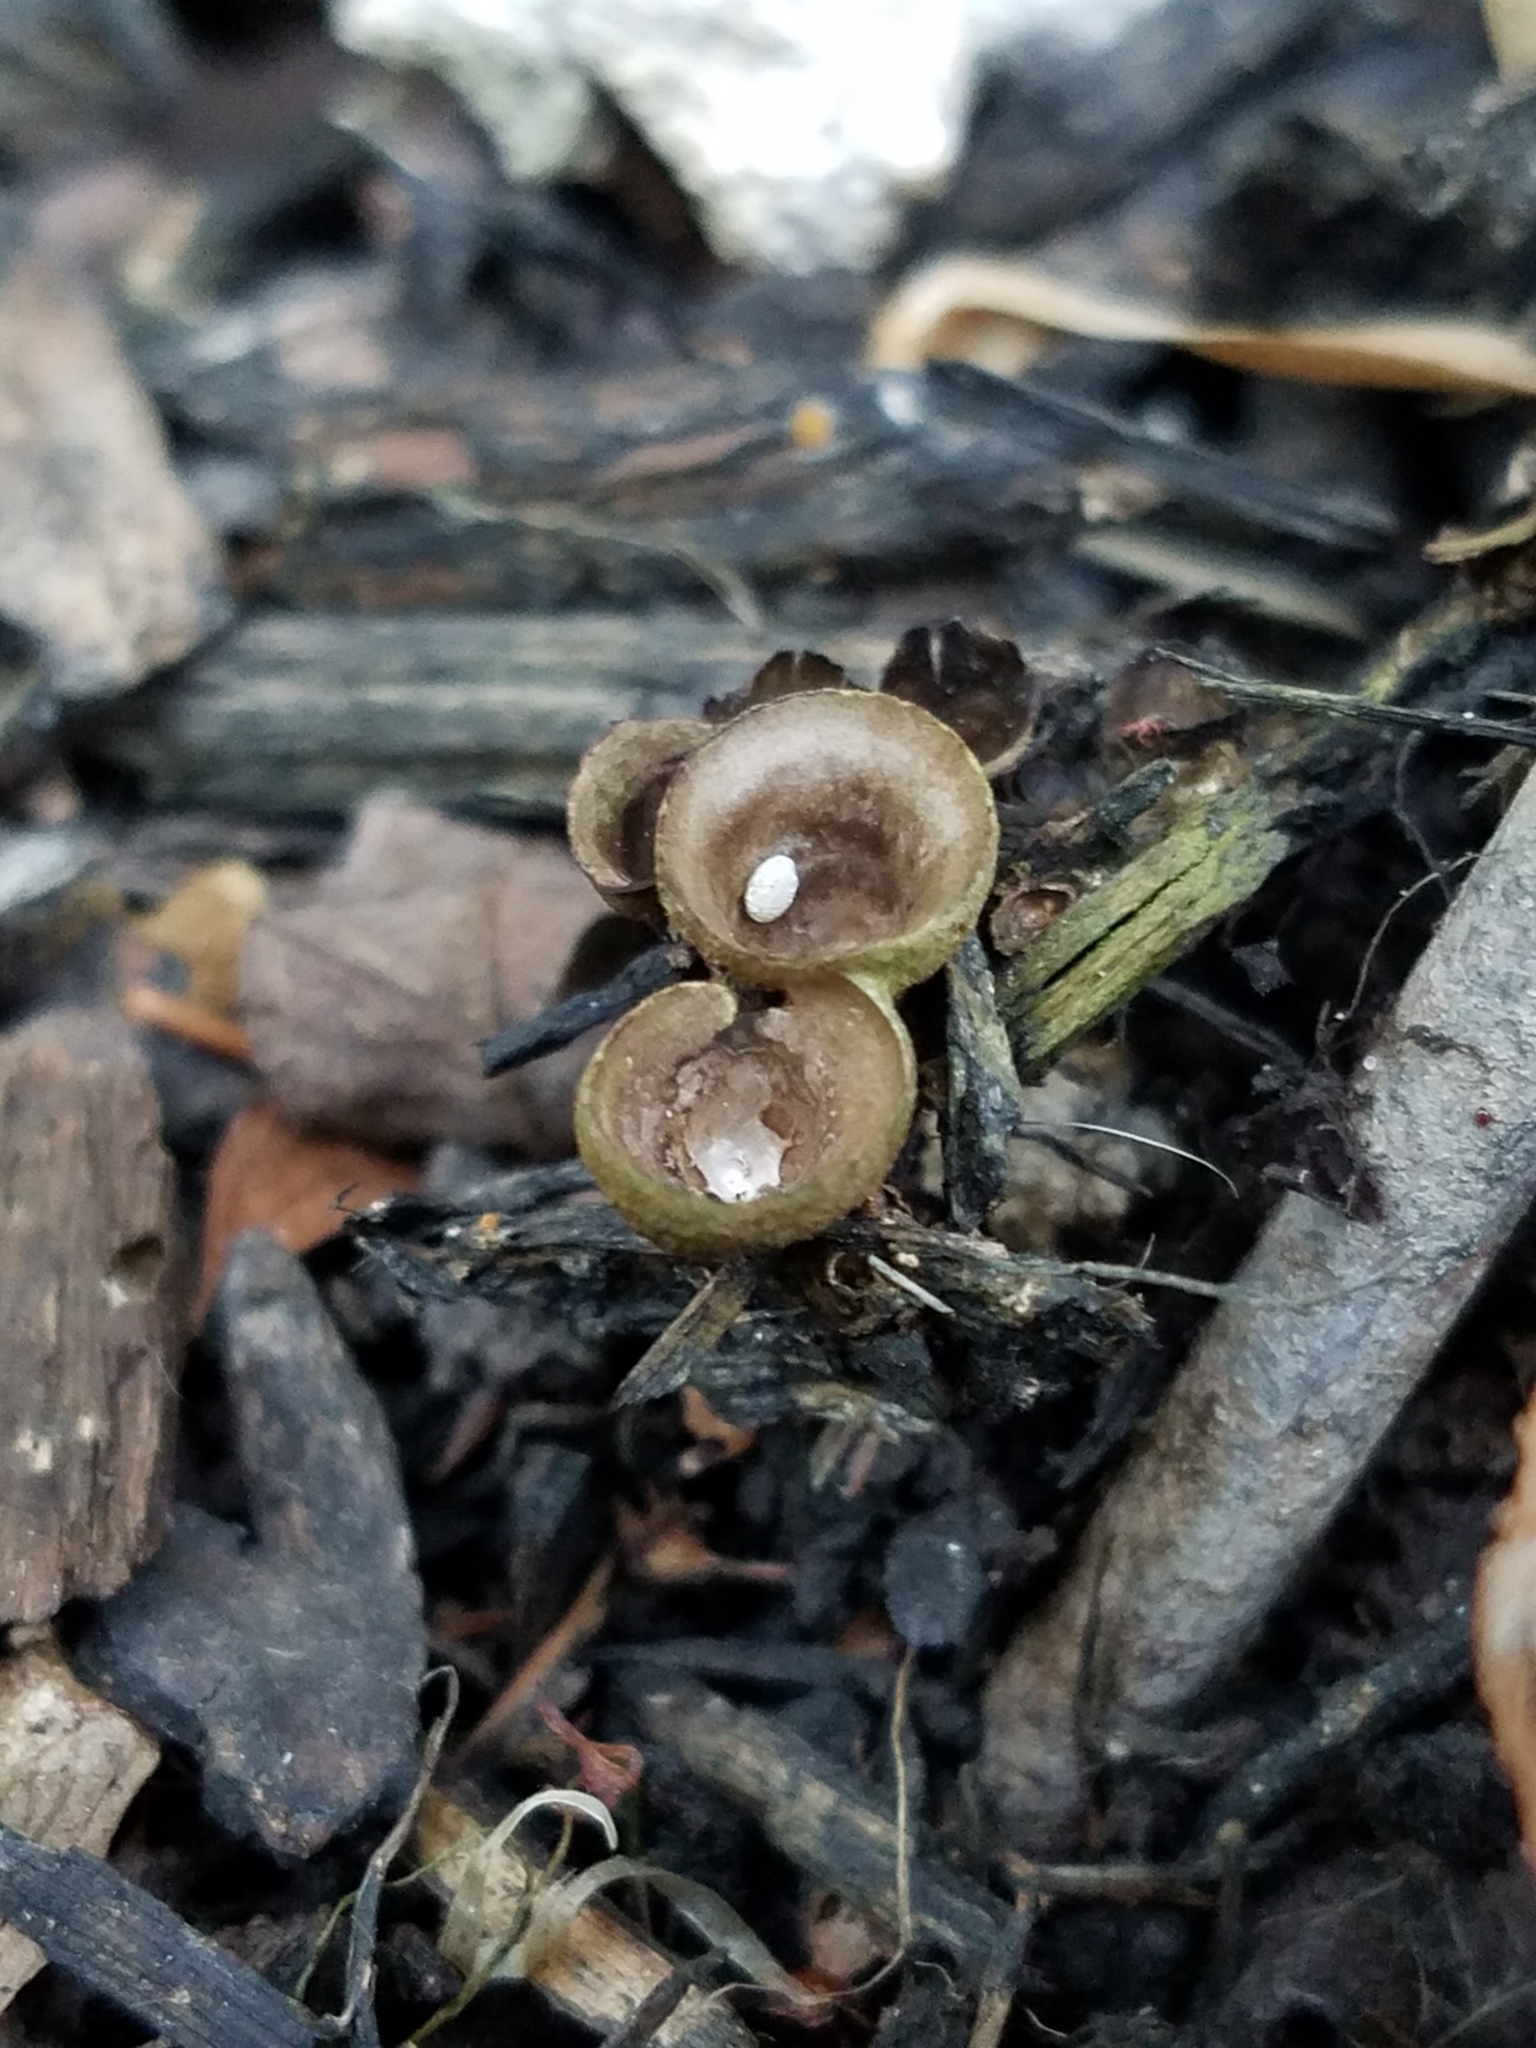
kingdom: Fungi
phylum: Basidiomycota
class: Agaricomycetes
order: Agaricales
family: Agaricaceae
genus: Cyathus
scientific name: Cyathus olla
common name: Field bird's nest
